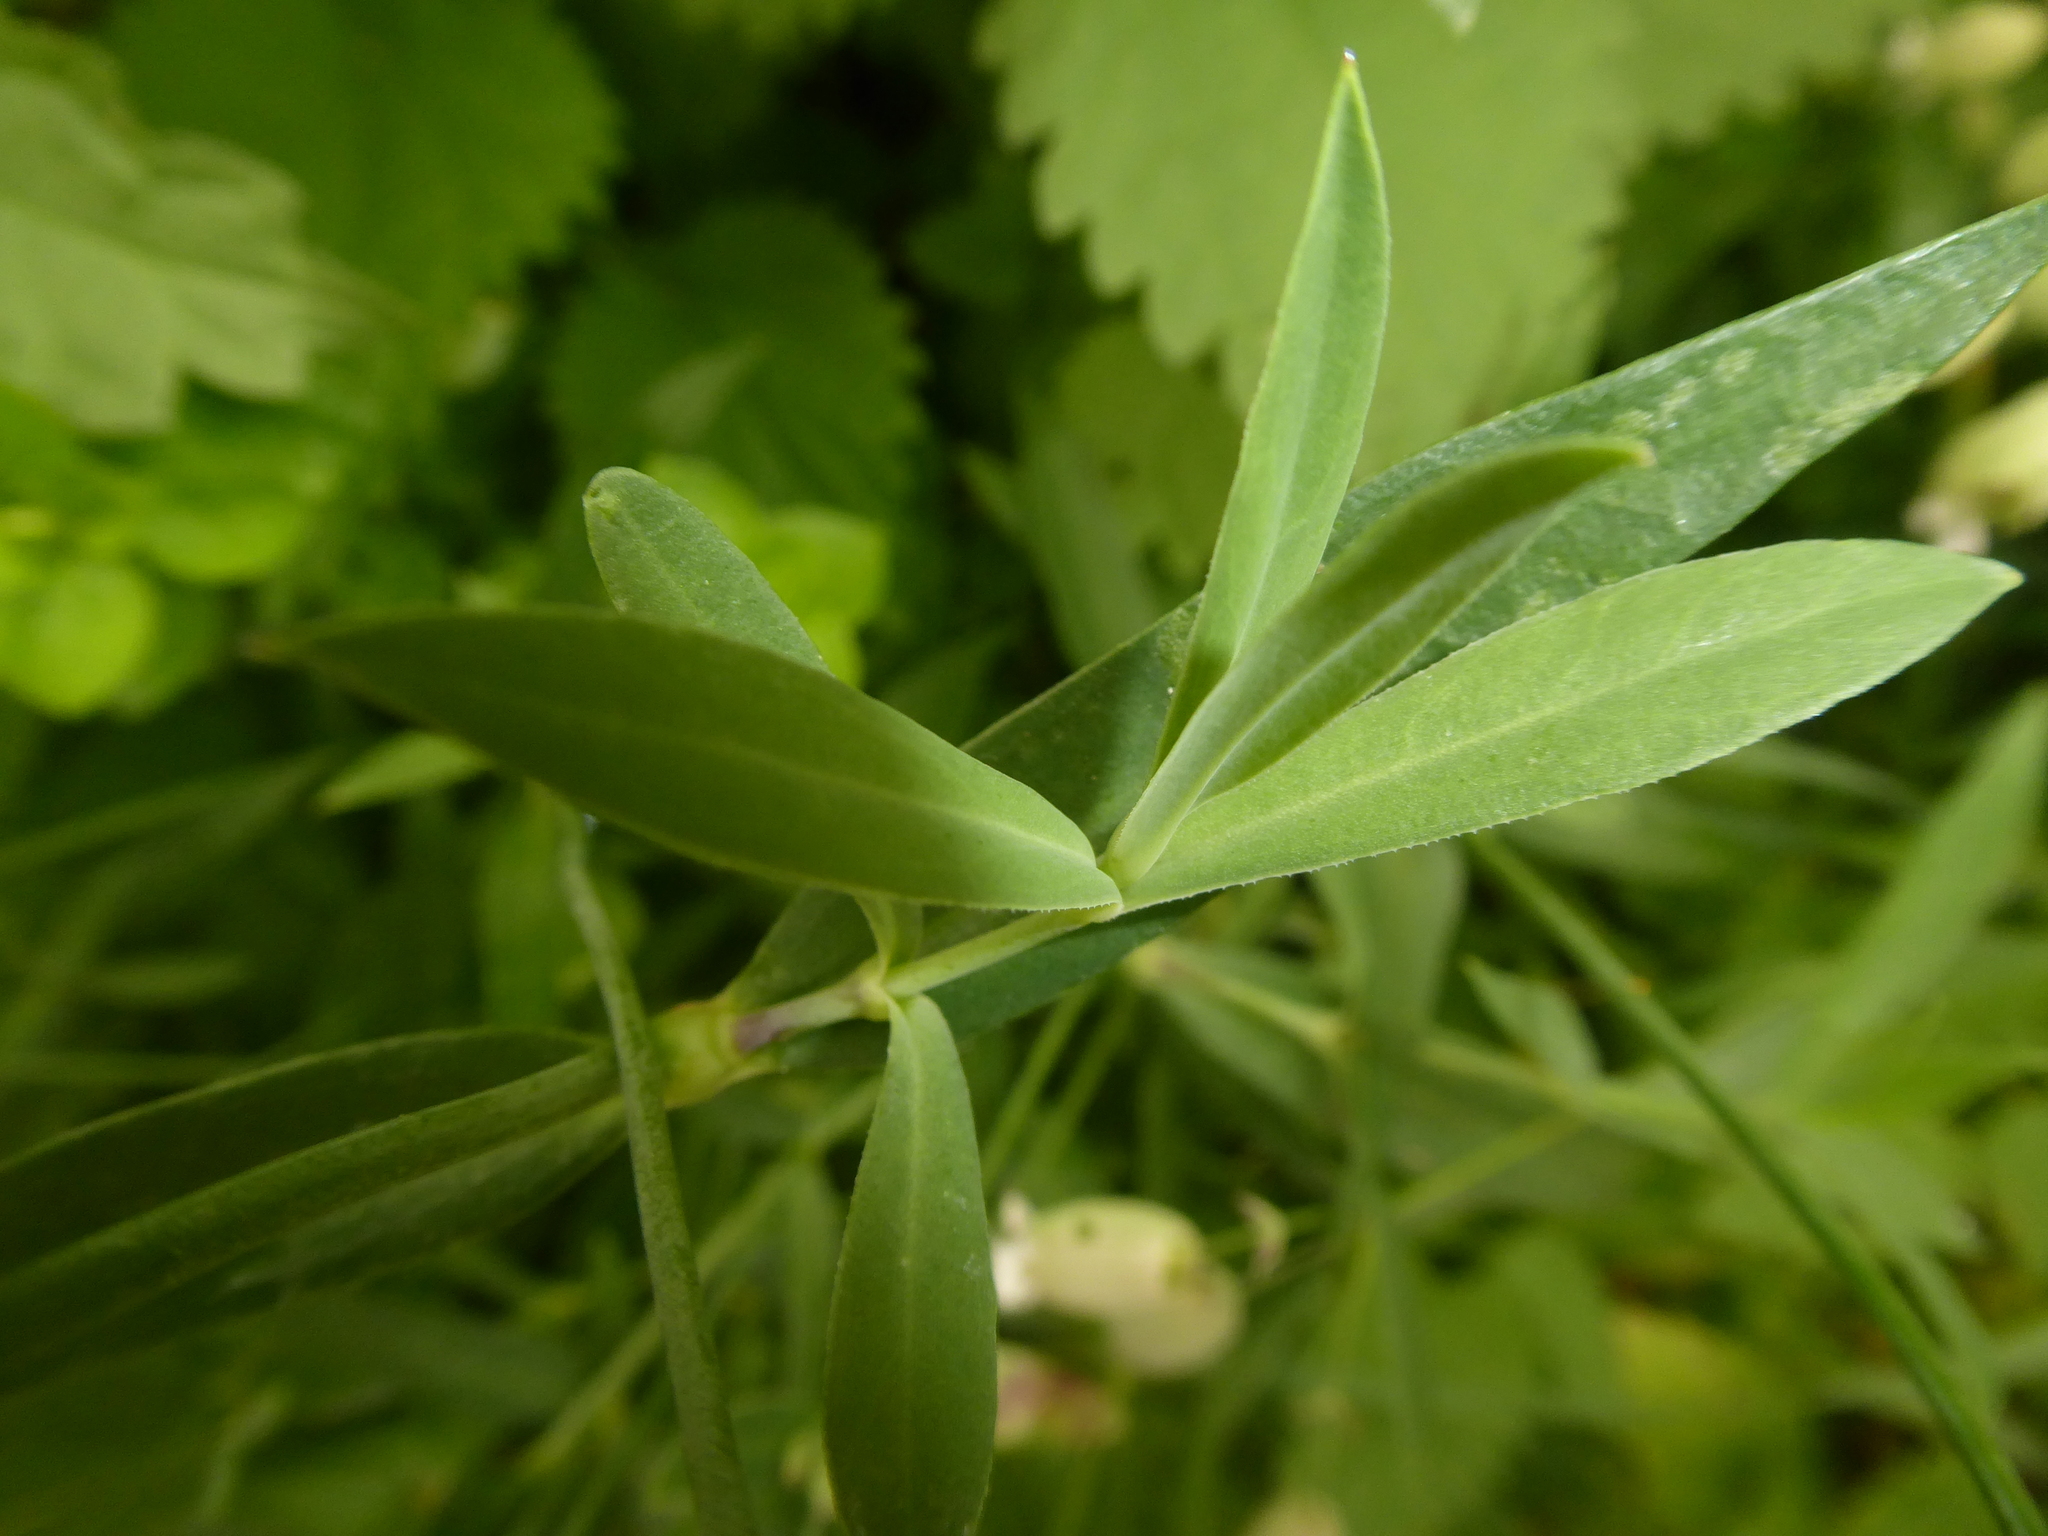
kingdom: Plantae
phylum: Tracheophyta
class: Magnoliopsida
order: Caryophyllales
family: Caryophyllaceae
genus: Silene
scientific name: Silene vulgaris
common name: Bladder campion
